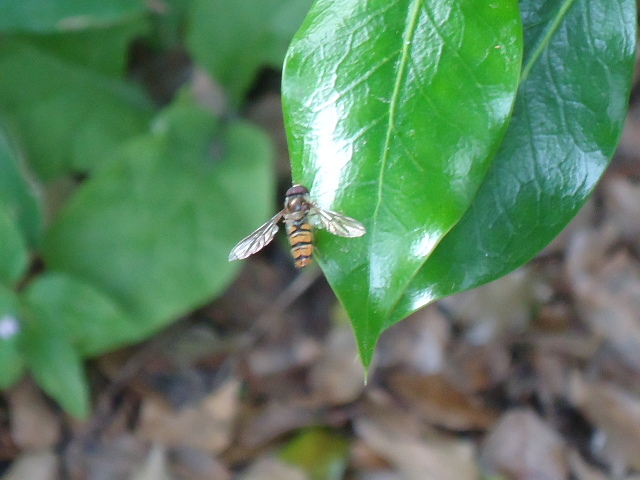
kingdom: Animalia
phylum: Arthropoda
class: Insecta
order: Diptera
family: Syrphidae
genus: Episyrphus
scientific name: Episyrphus balteatus
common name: Marmalade hoverfly
